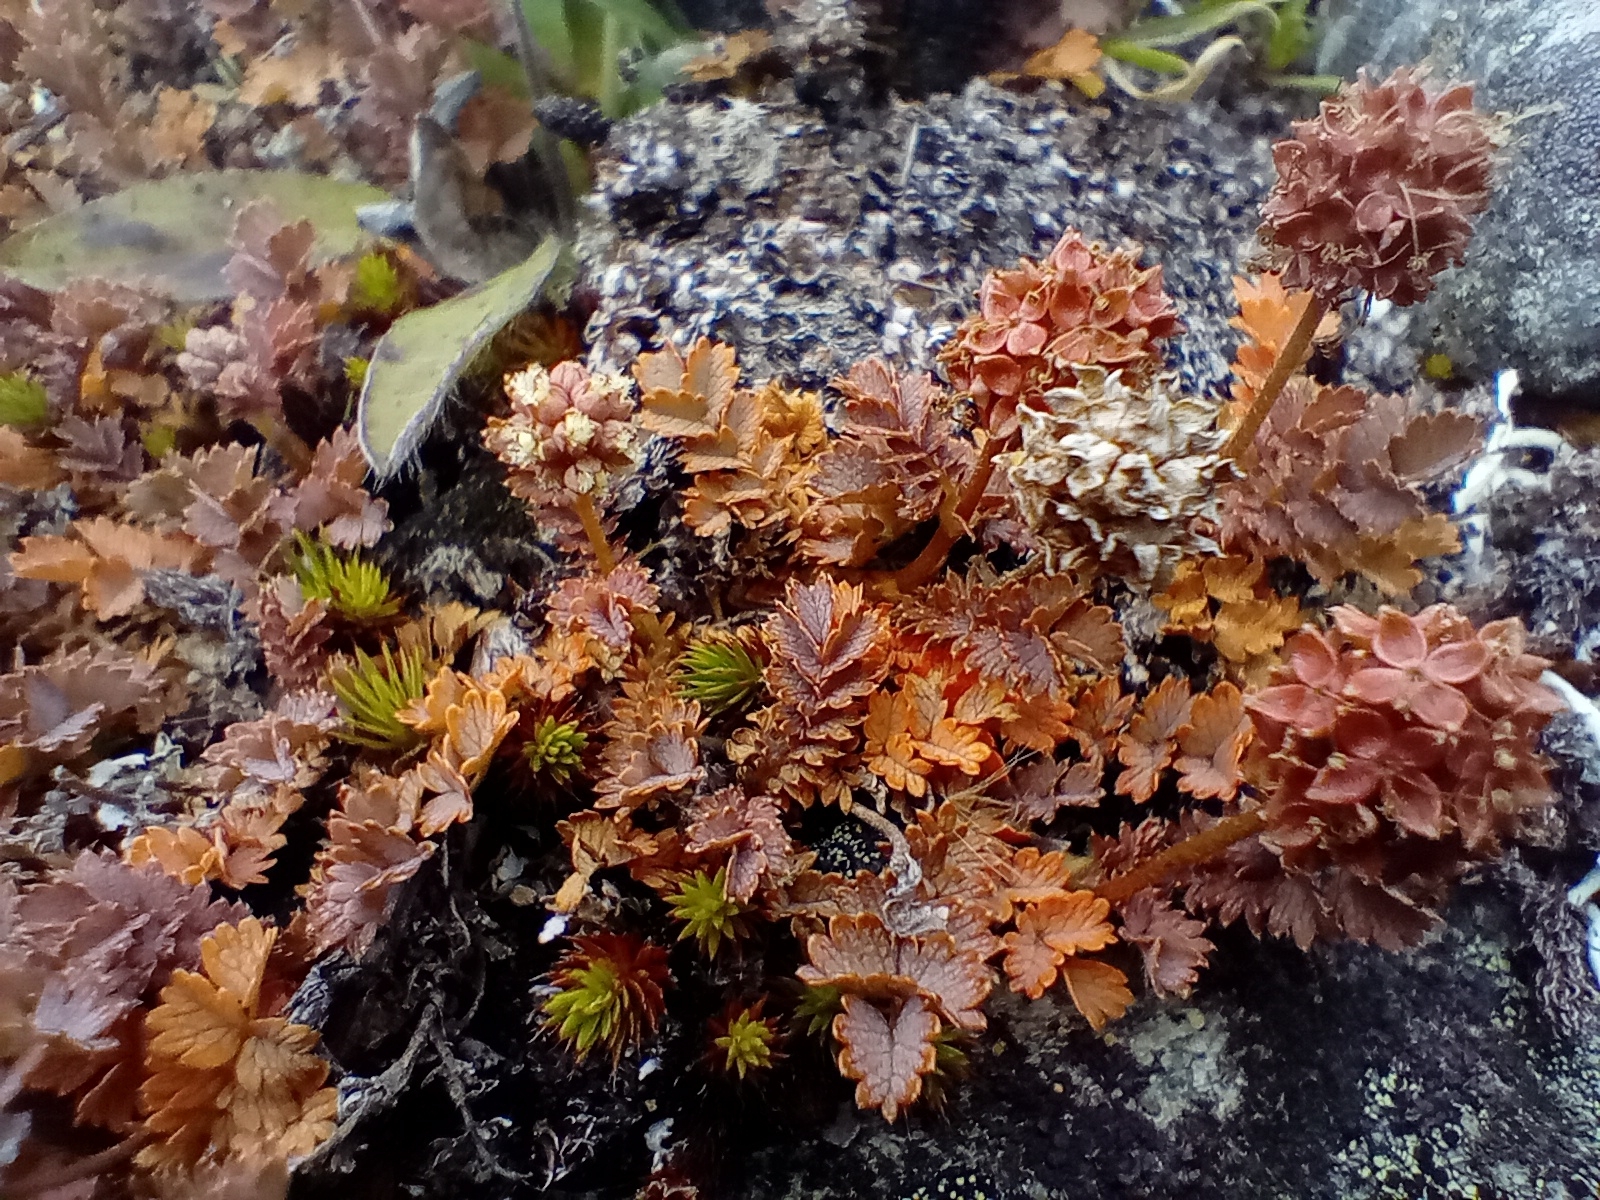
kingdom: Plantae
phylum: Tracheophyta
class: Magnoliopsida
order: Rosales
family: Rosaceae
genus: Acaena
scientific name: Acaena inermis
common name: Spineless acaena
